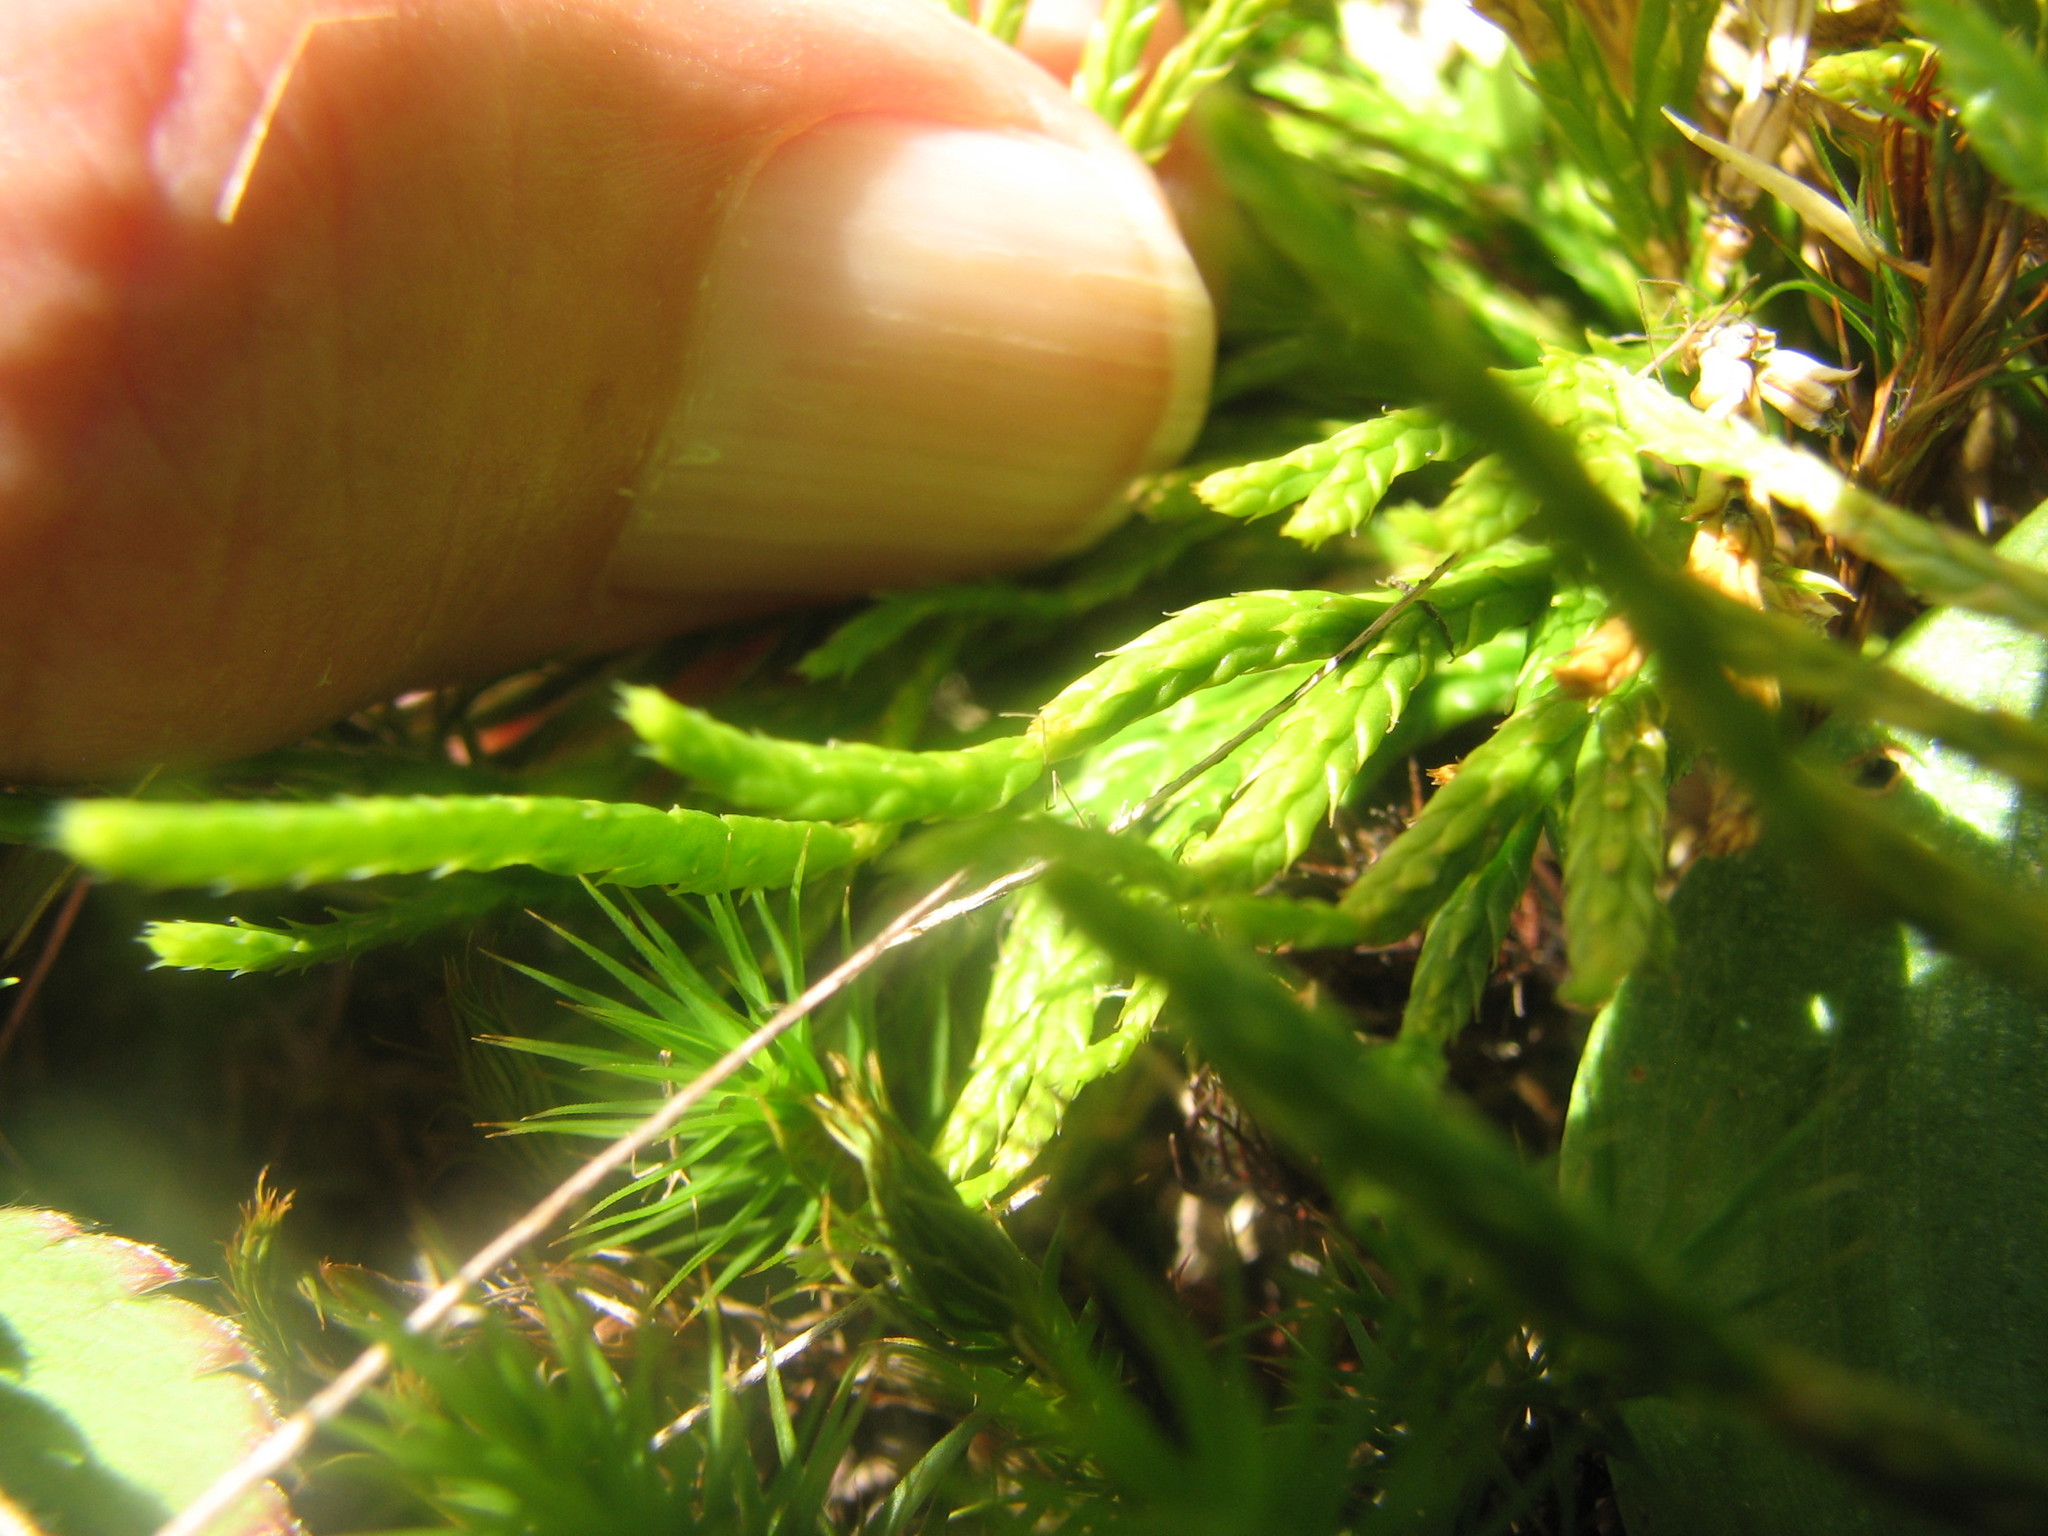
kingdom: Plantae
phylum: Tracheophyta
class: Lycopodiopsida
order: Lycopodiales
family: Lycopodiaceae
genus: Diphasiastrum
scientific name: Diphasiastrum verecundum
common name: Bashful ground-cedar
